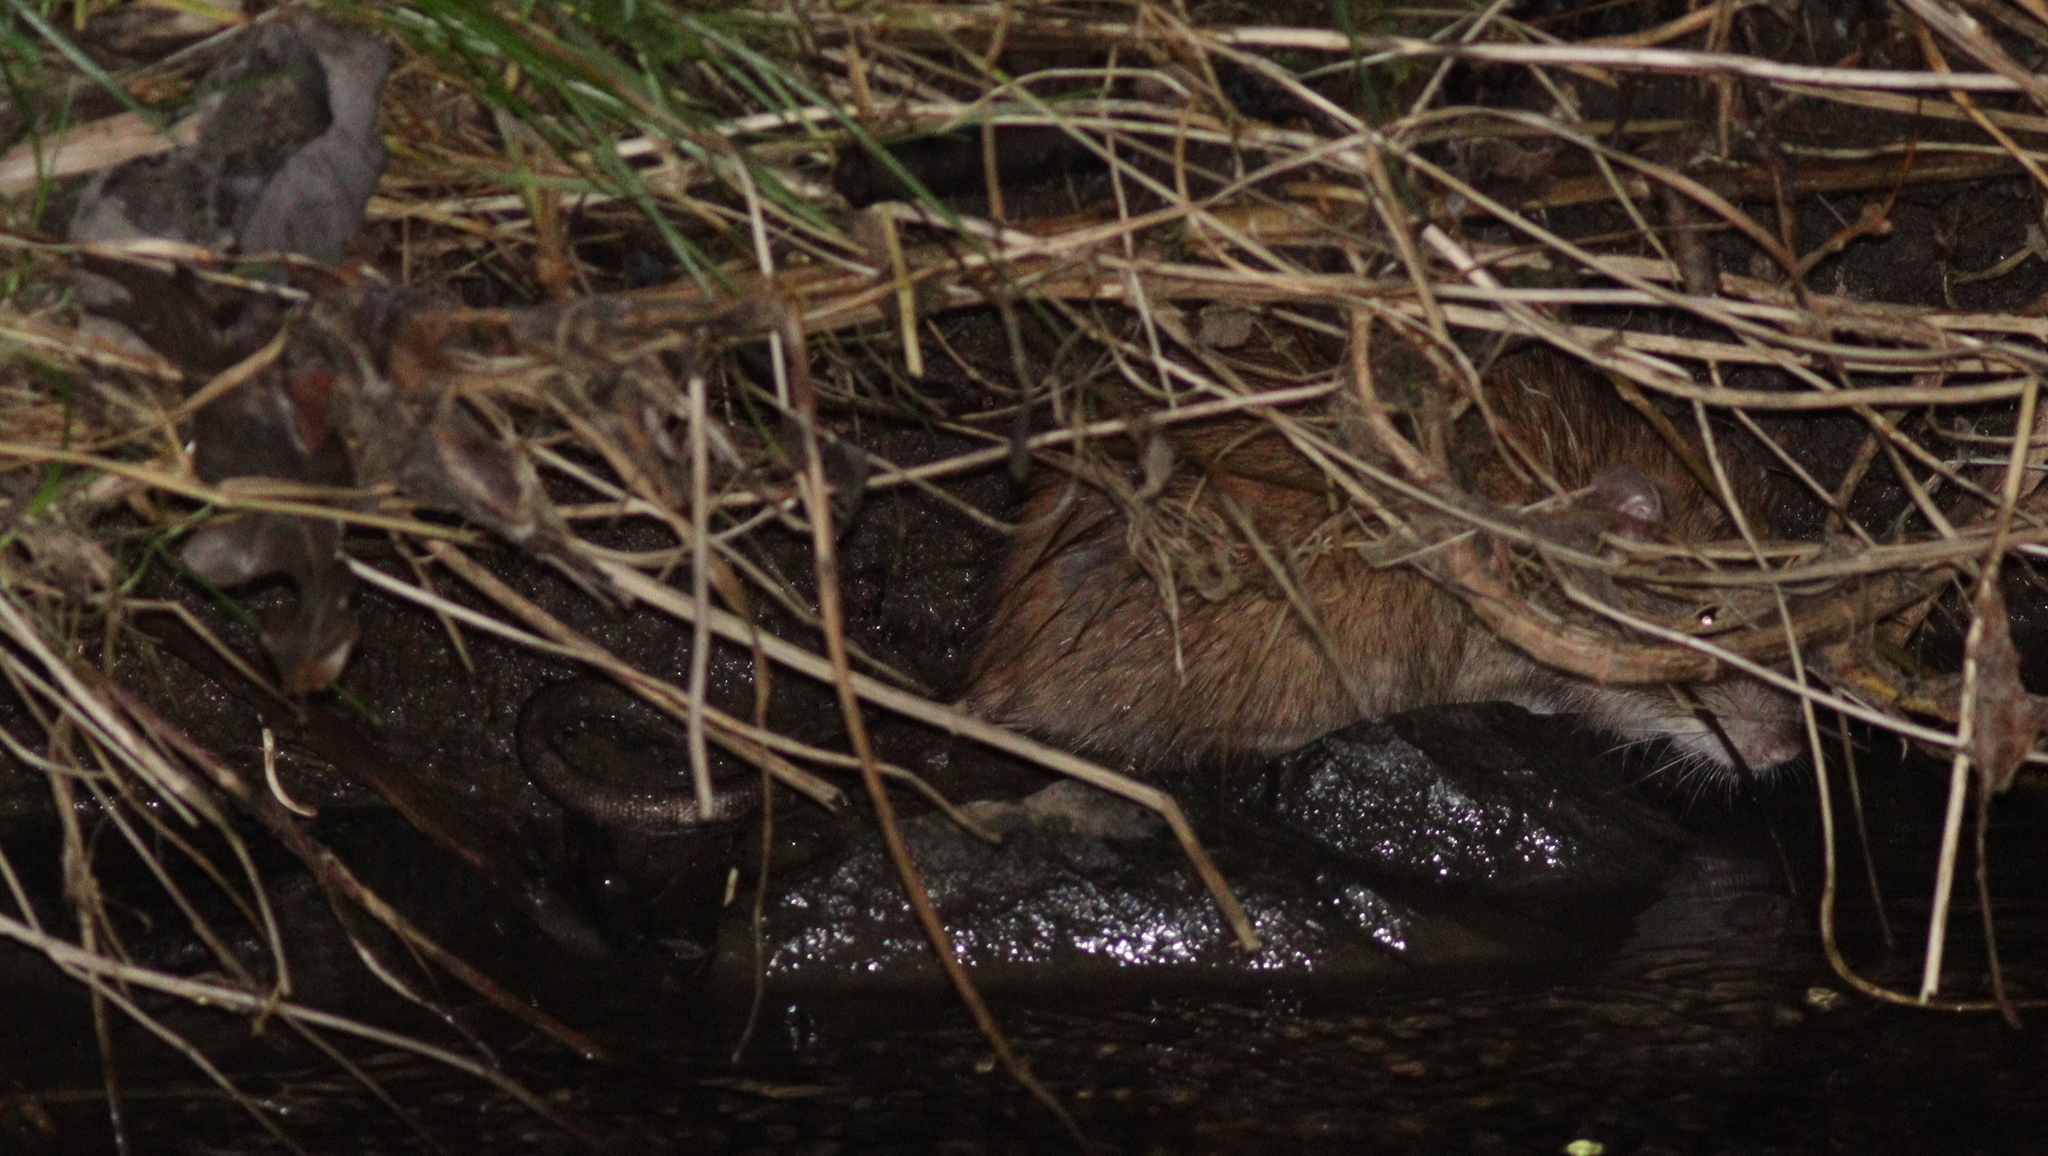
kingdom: Animalia
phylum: Chordata
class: Mammalia
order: Rodentia
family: Muridae
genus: Rattus
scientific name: Rattus norvegicus
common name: Brown rat
